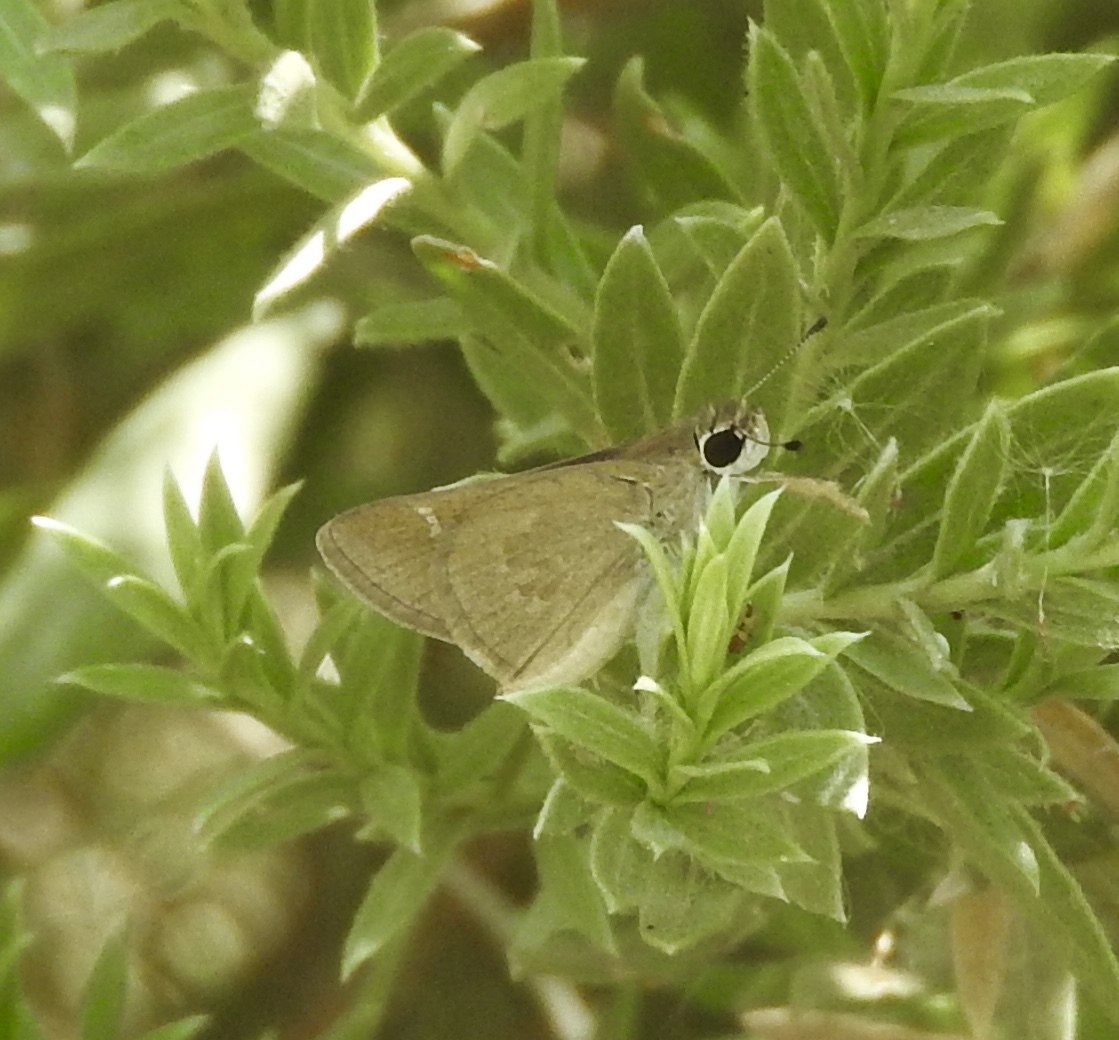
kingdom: Animalia
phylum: Arthropoda
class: Insecta
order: Lepidoptera
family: Hesperiidae
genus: Lerodea
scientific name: Lerodea eufala
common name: Eufala skipper
